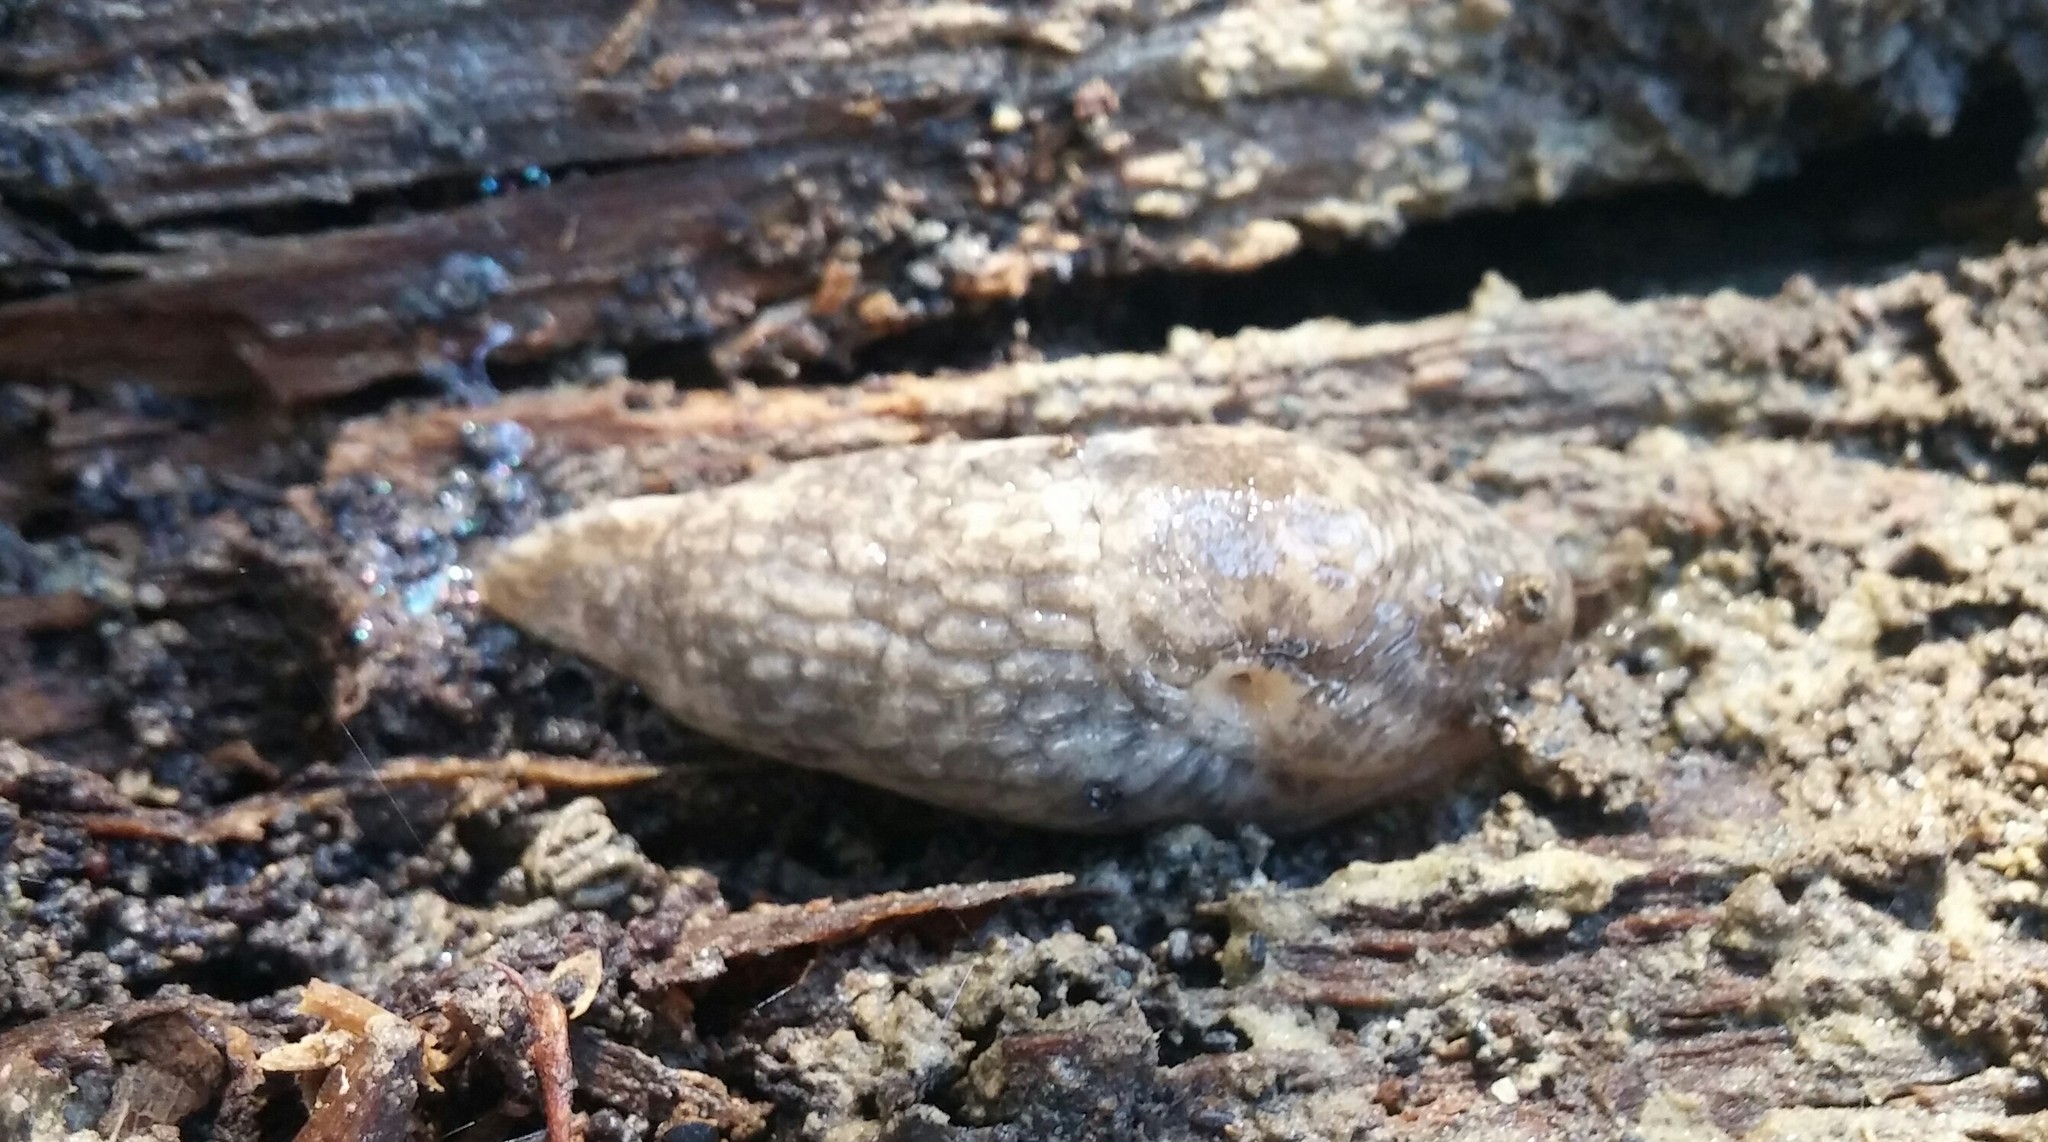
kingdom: Animalia
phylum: Mollusca
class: Gastropoda
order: Stylommatophora
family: Agriolimacidae
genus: Deroceras
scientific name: Deroceras reticulatum
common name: Gray field slug
